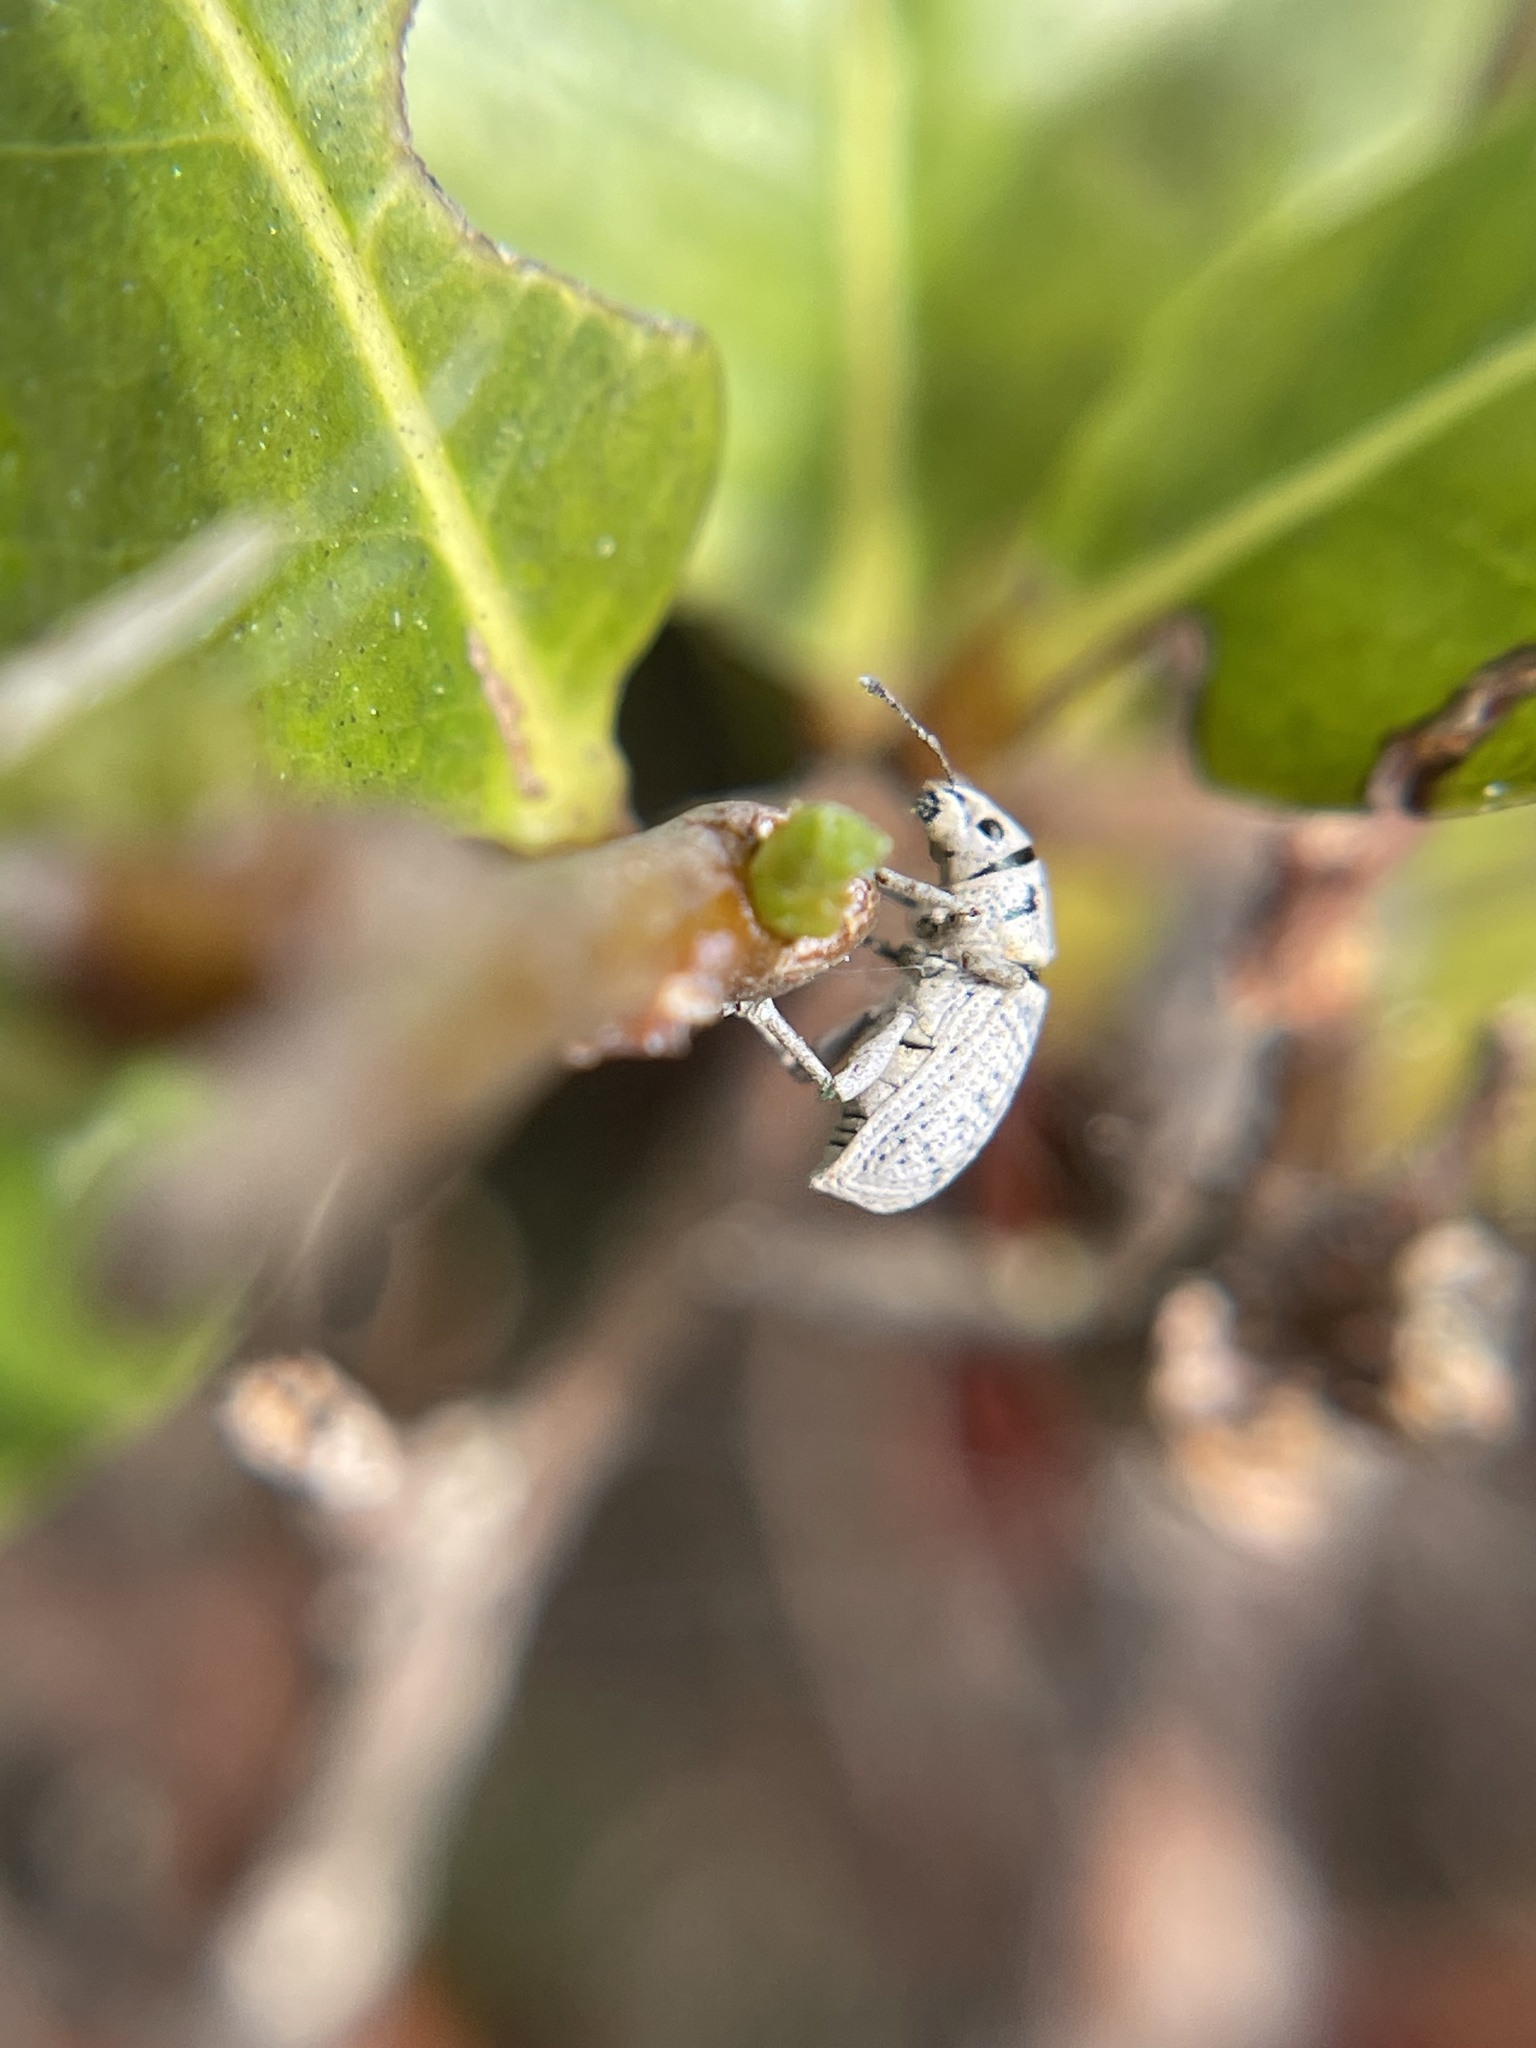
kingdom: Animalia
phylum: Arthropoda
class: Insecta
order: Coleoptera
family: Curculionidae
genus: Artipus
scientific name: Artipus floridanus
